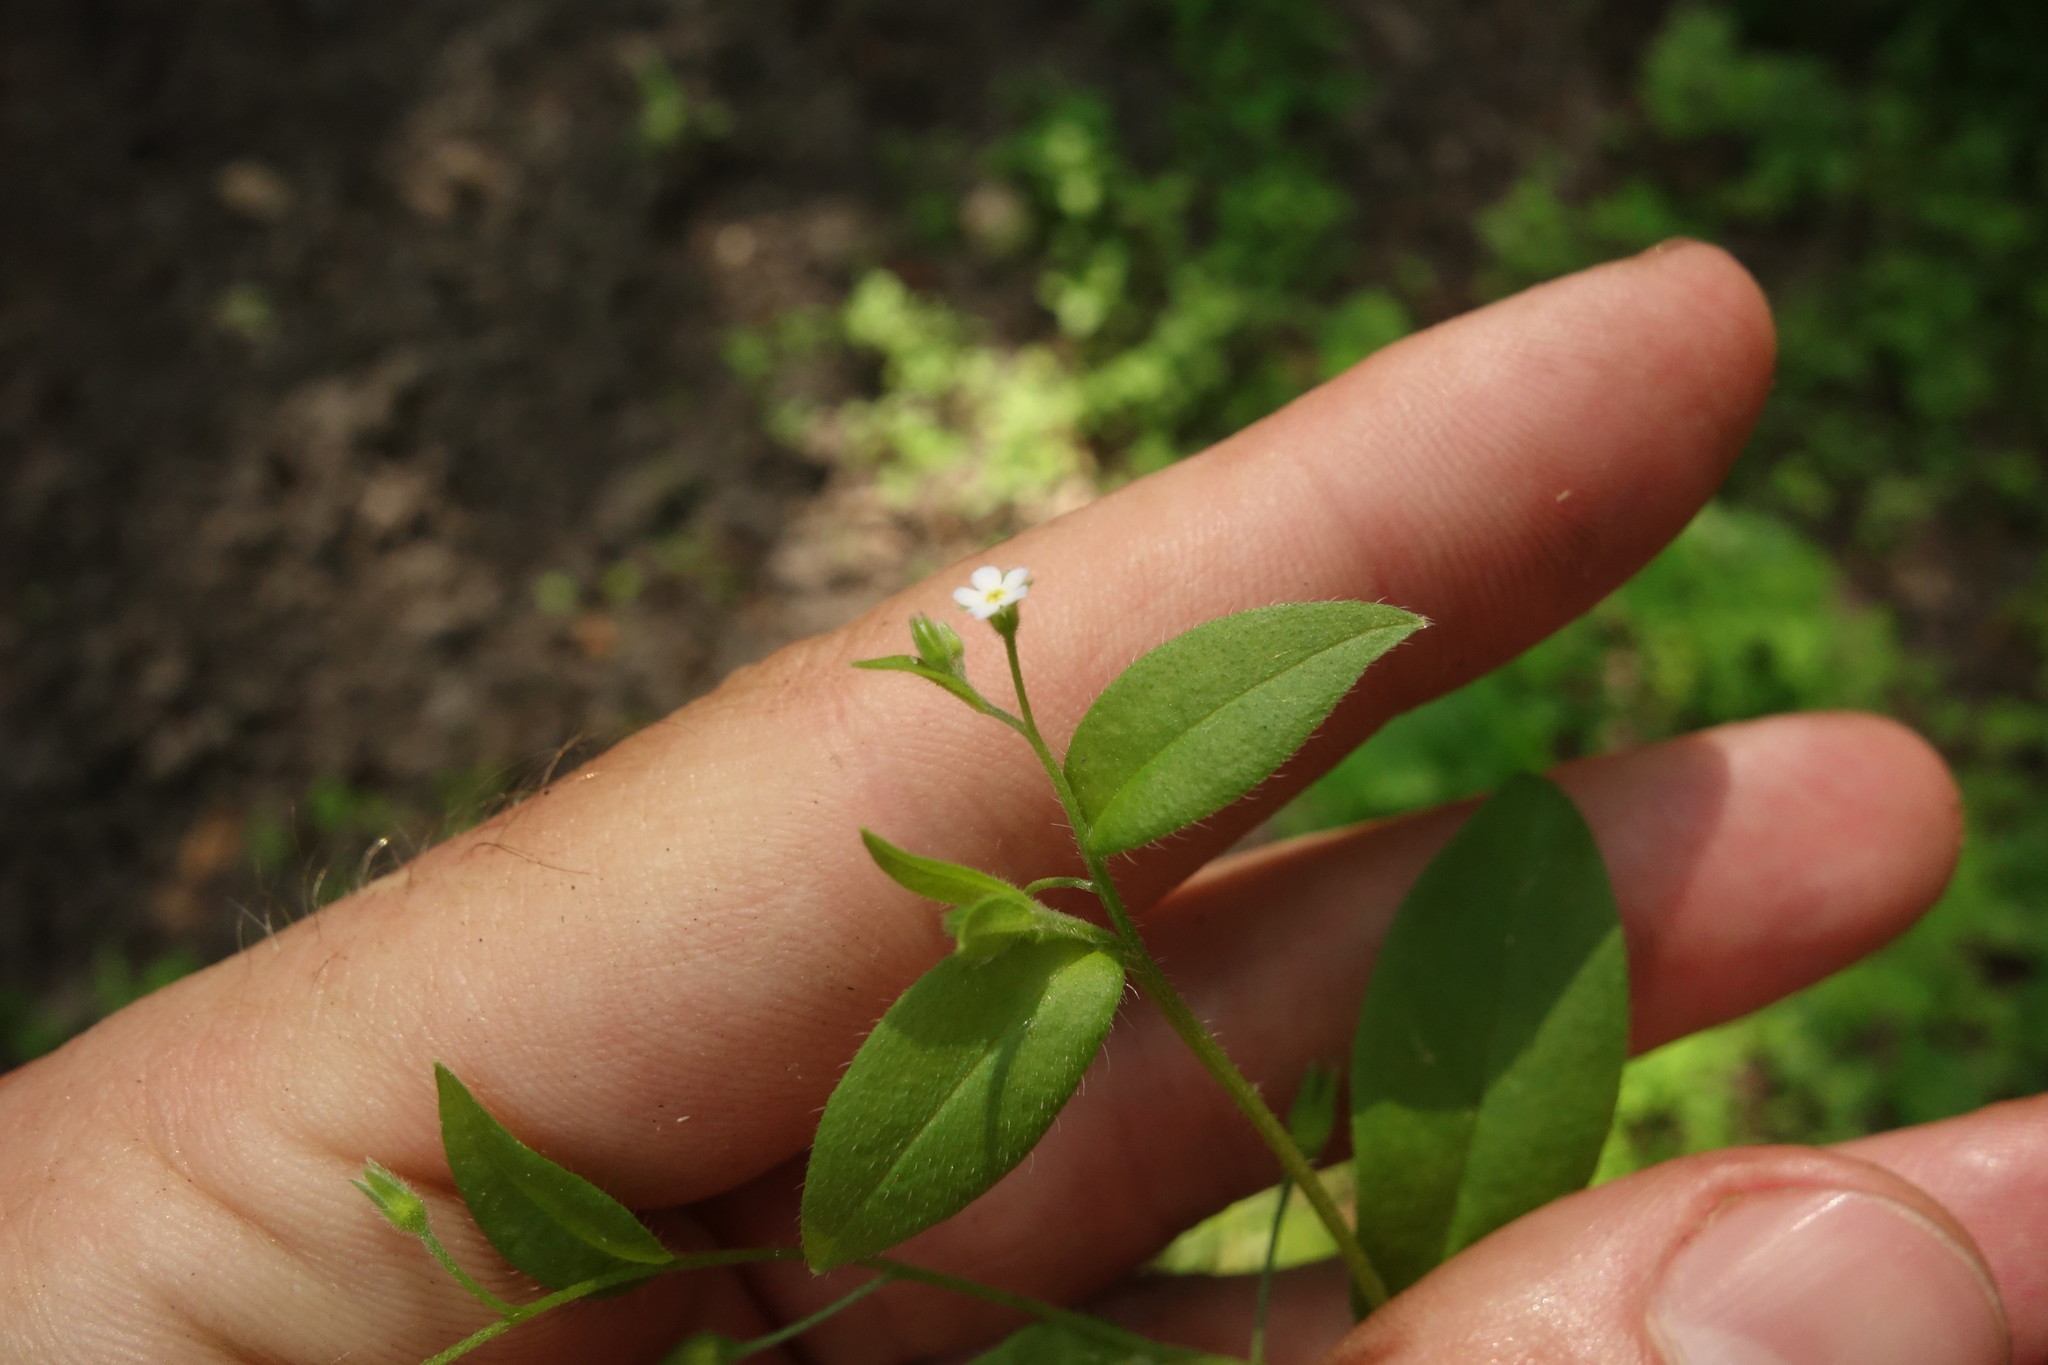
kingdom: Plantae
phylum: Tracheophyta
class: Magnoliopsida
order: Boraginales
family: Boraginaceae
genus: Myosotis
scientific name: Myosotis sparsiflora
